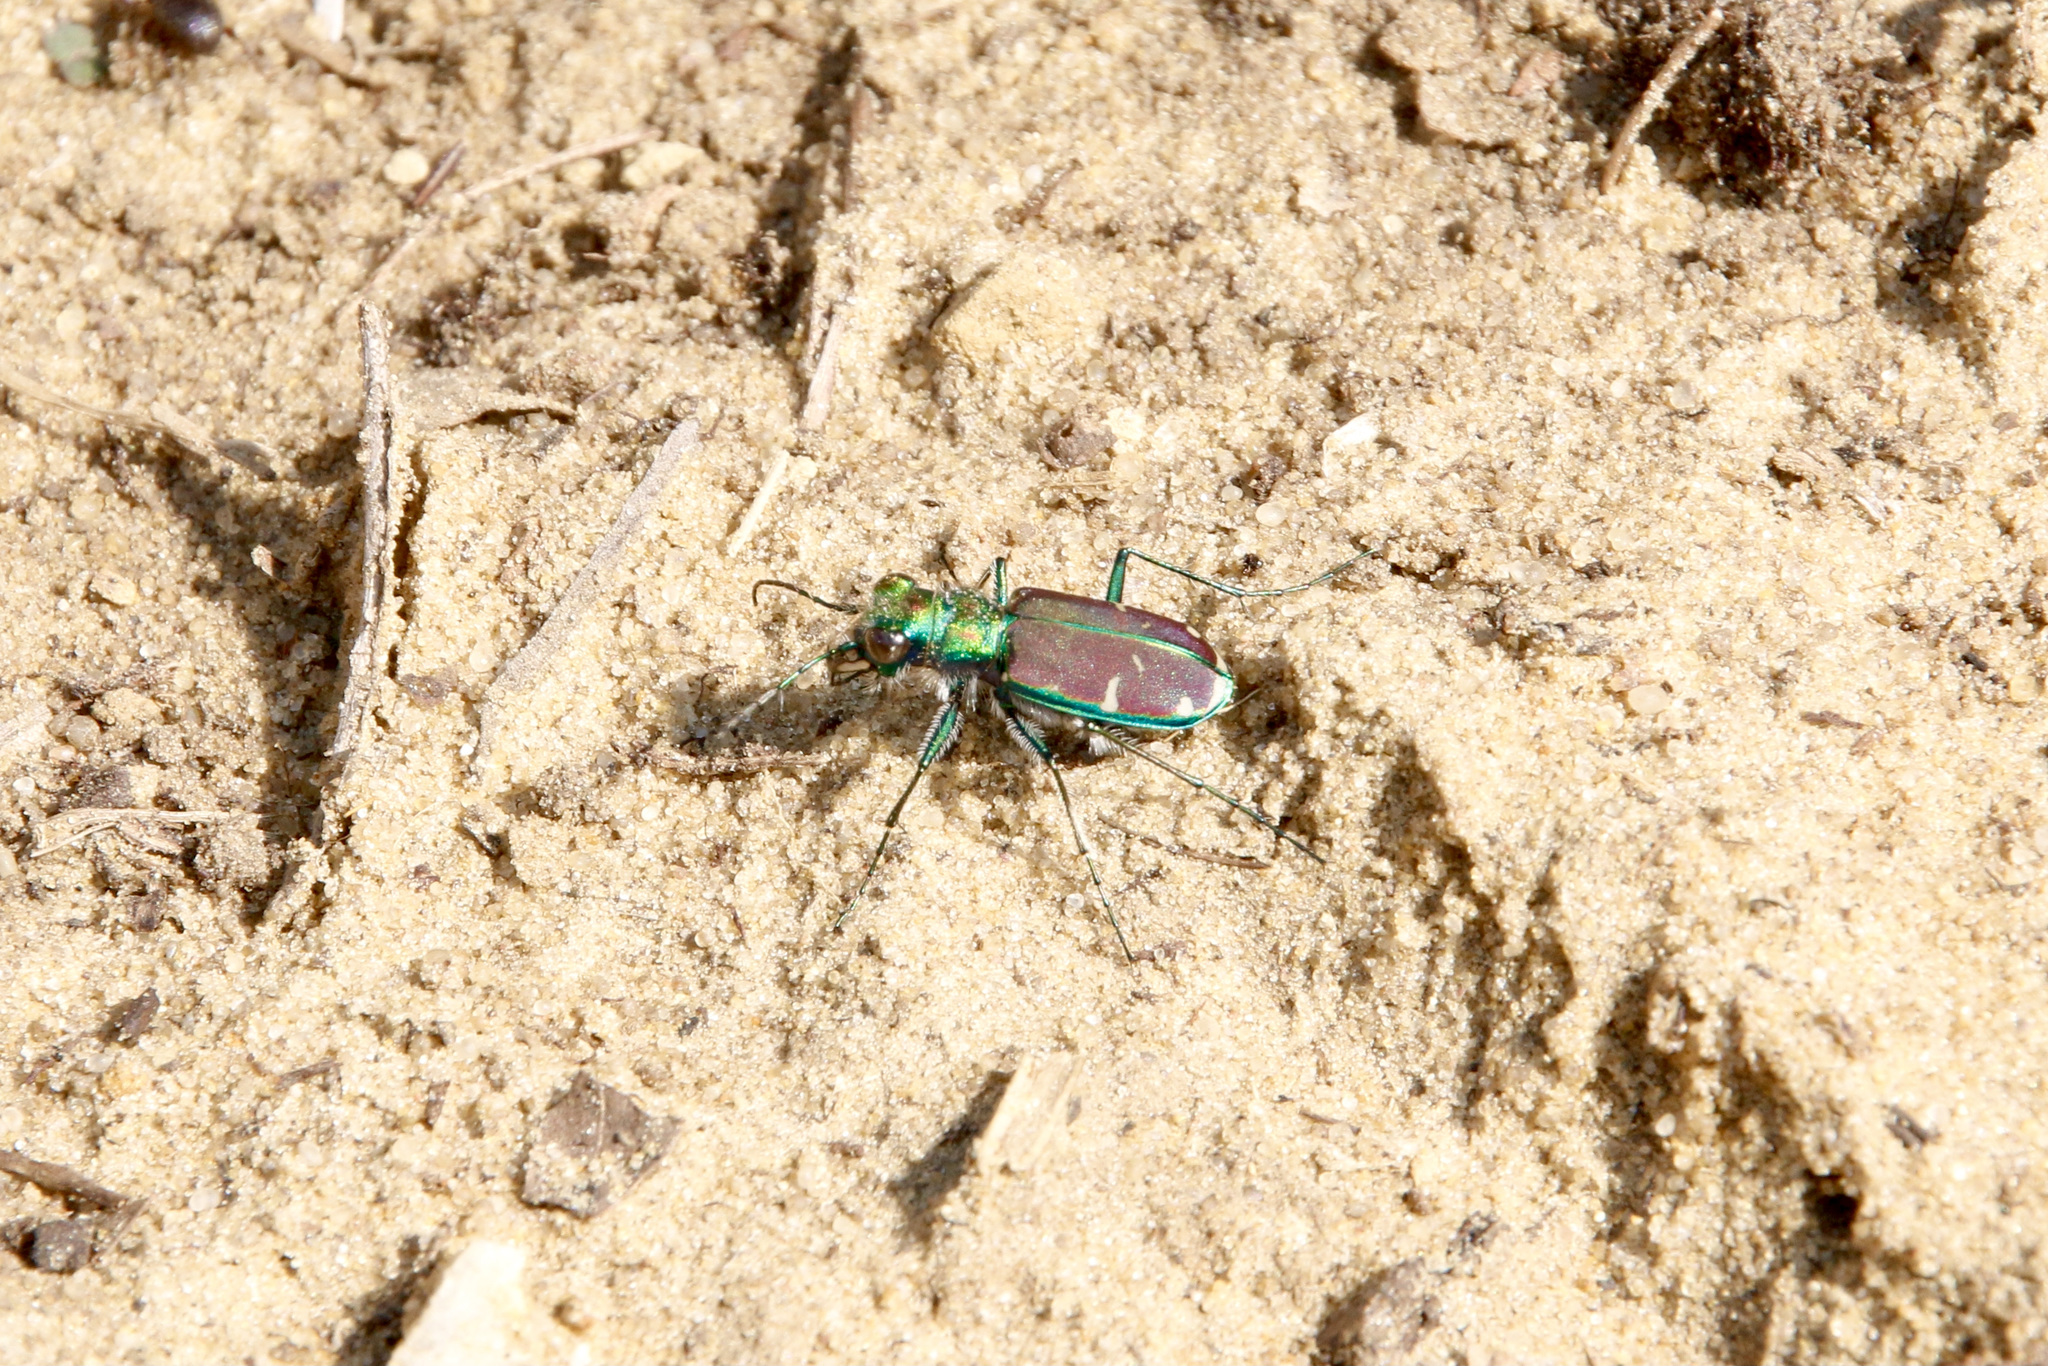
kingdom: Animalia
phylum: Arthropoda
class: Insecta
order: Coleoptera
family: Carabidae
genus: Cicindela
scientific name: Cicindela splendida
